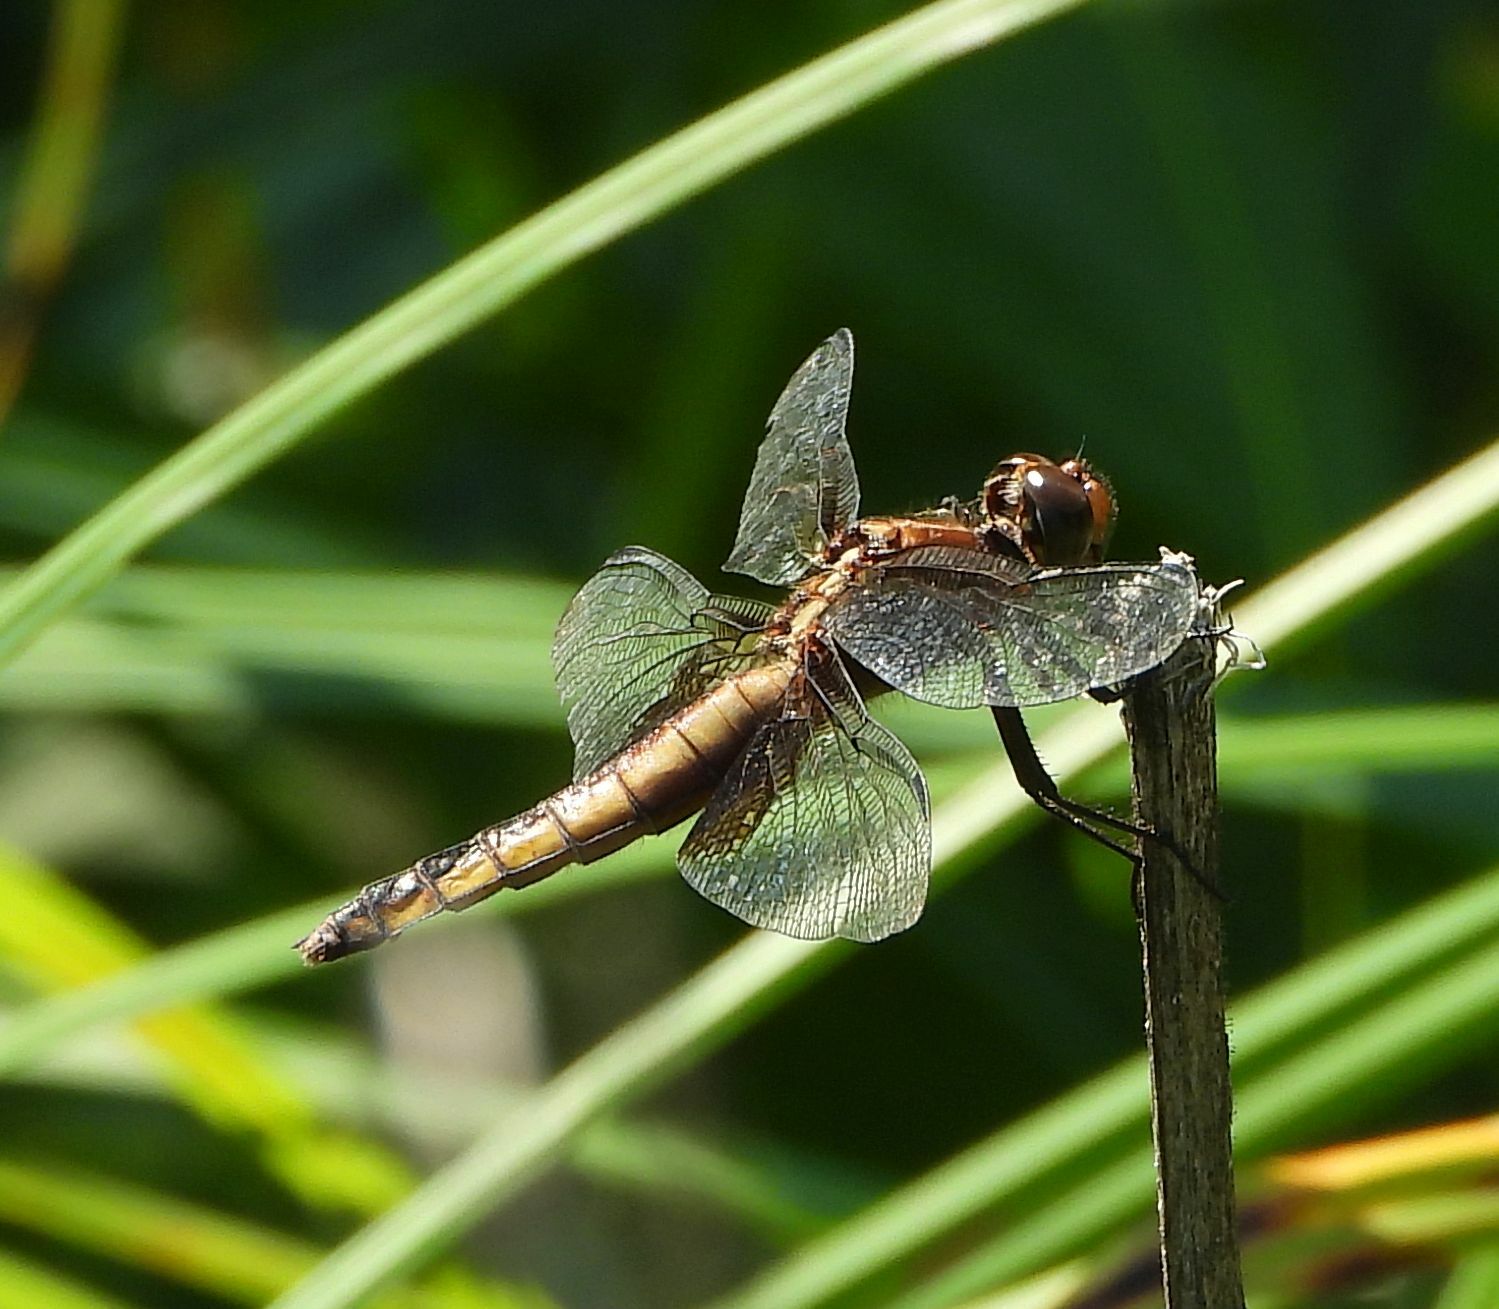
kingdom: Animalia
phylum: Arthropoda
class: Insecta
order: Odonata
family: Libellulidae
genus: Libellula
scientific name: Libellula luctuosa
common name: Widow skimmer
